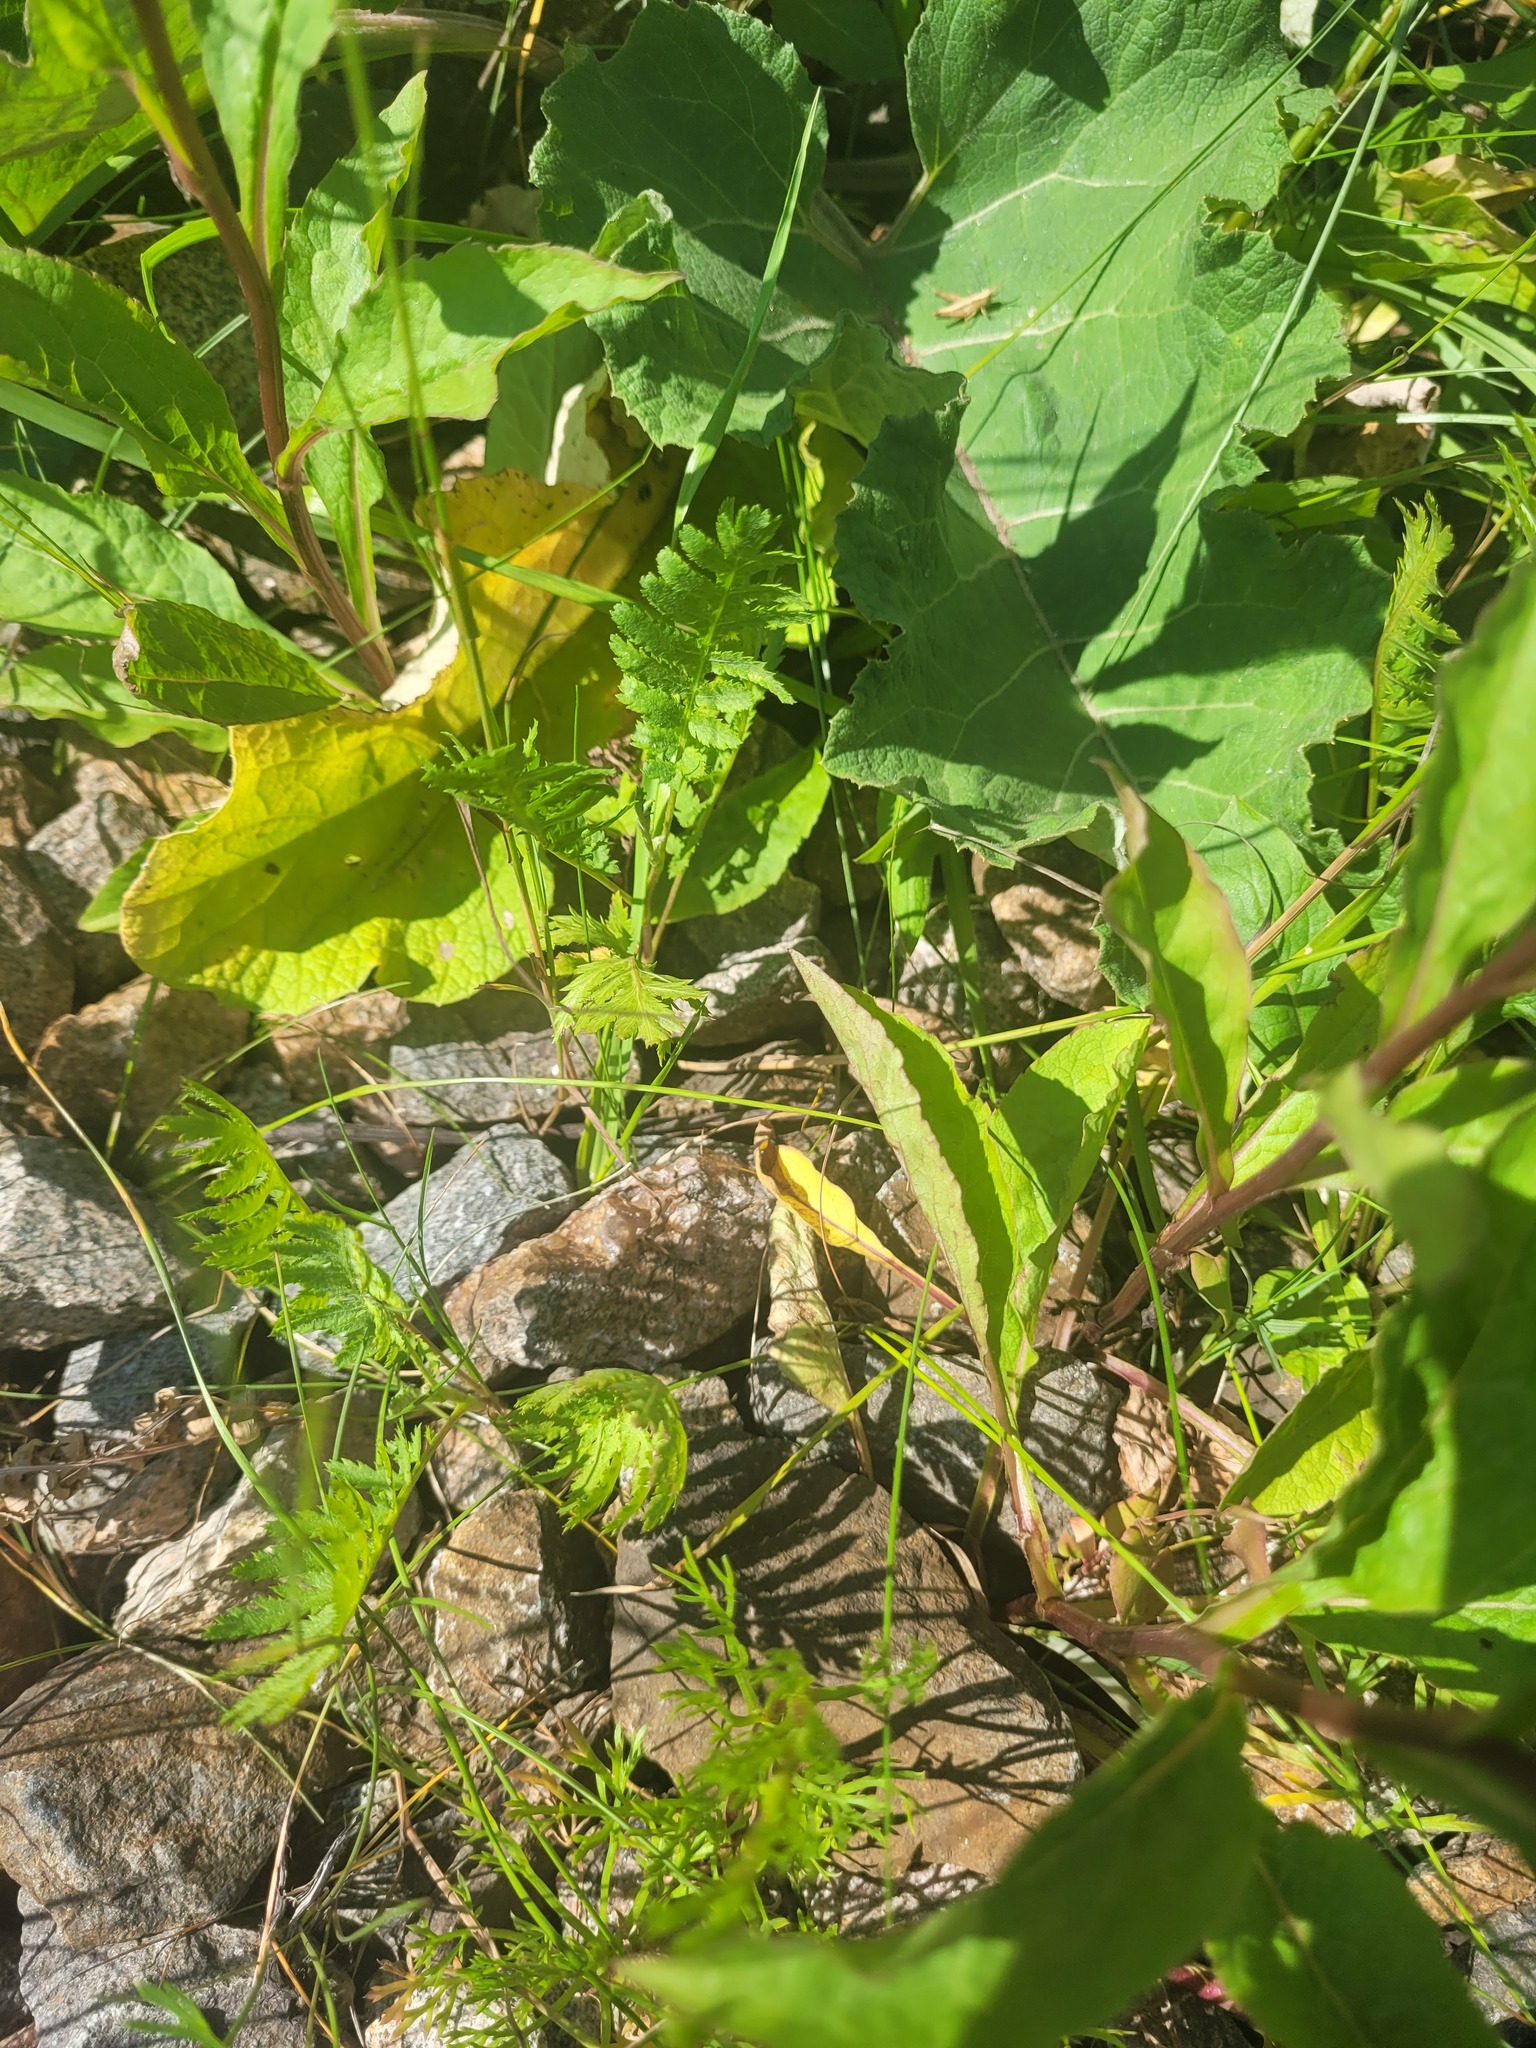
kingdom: Plantae
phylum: Tracheophyta
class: Magnoliopsida
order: Asterales
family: Asteraceae
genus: Tanacetum
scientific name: Tanacetum vulgare
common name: Common tansy
